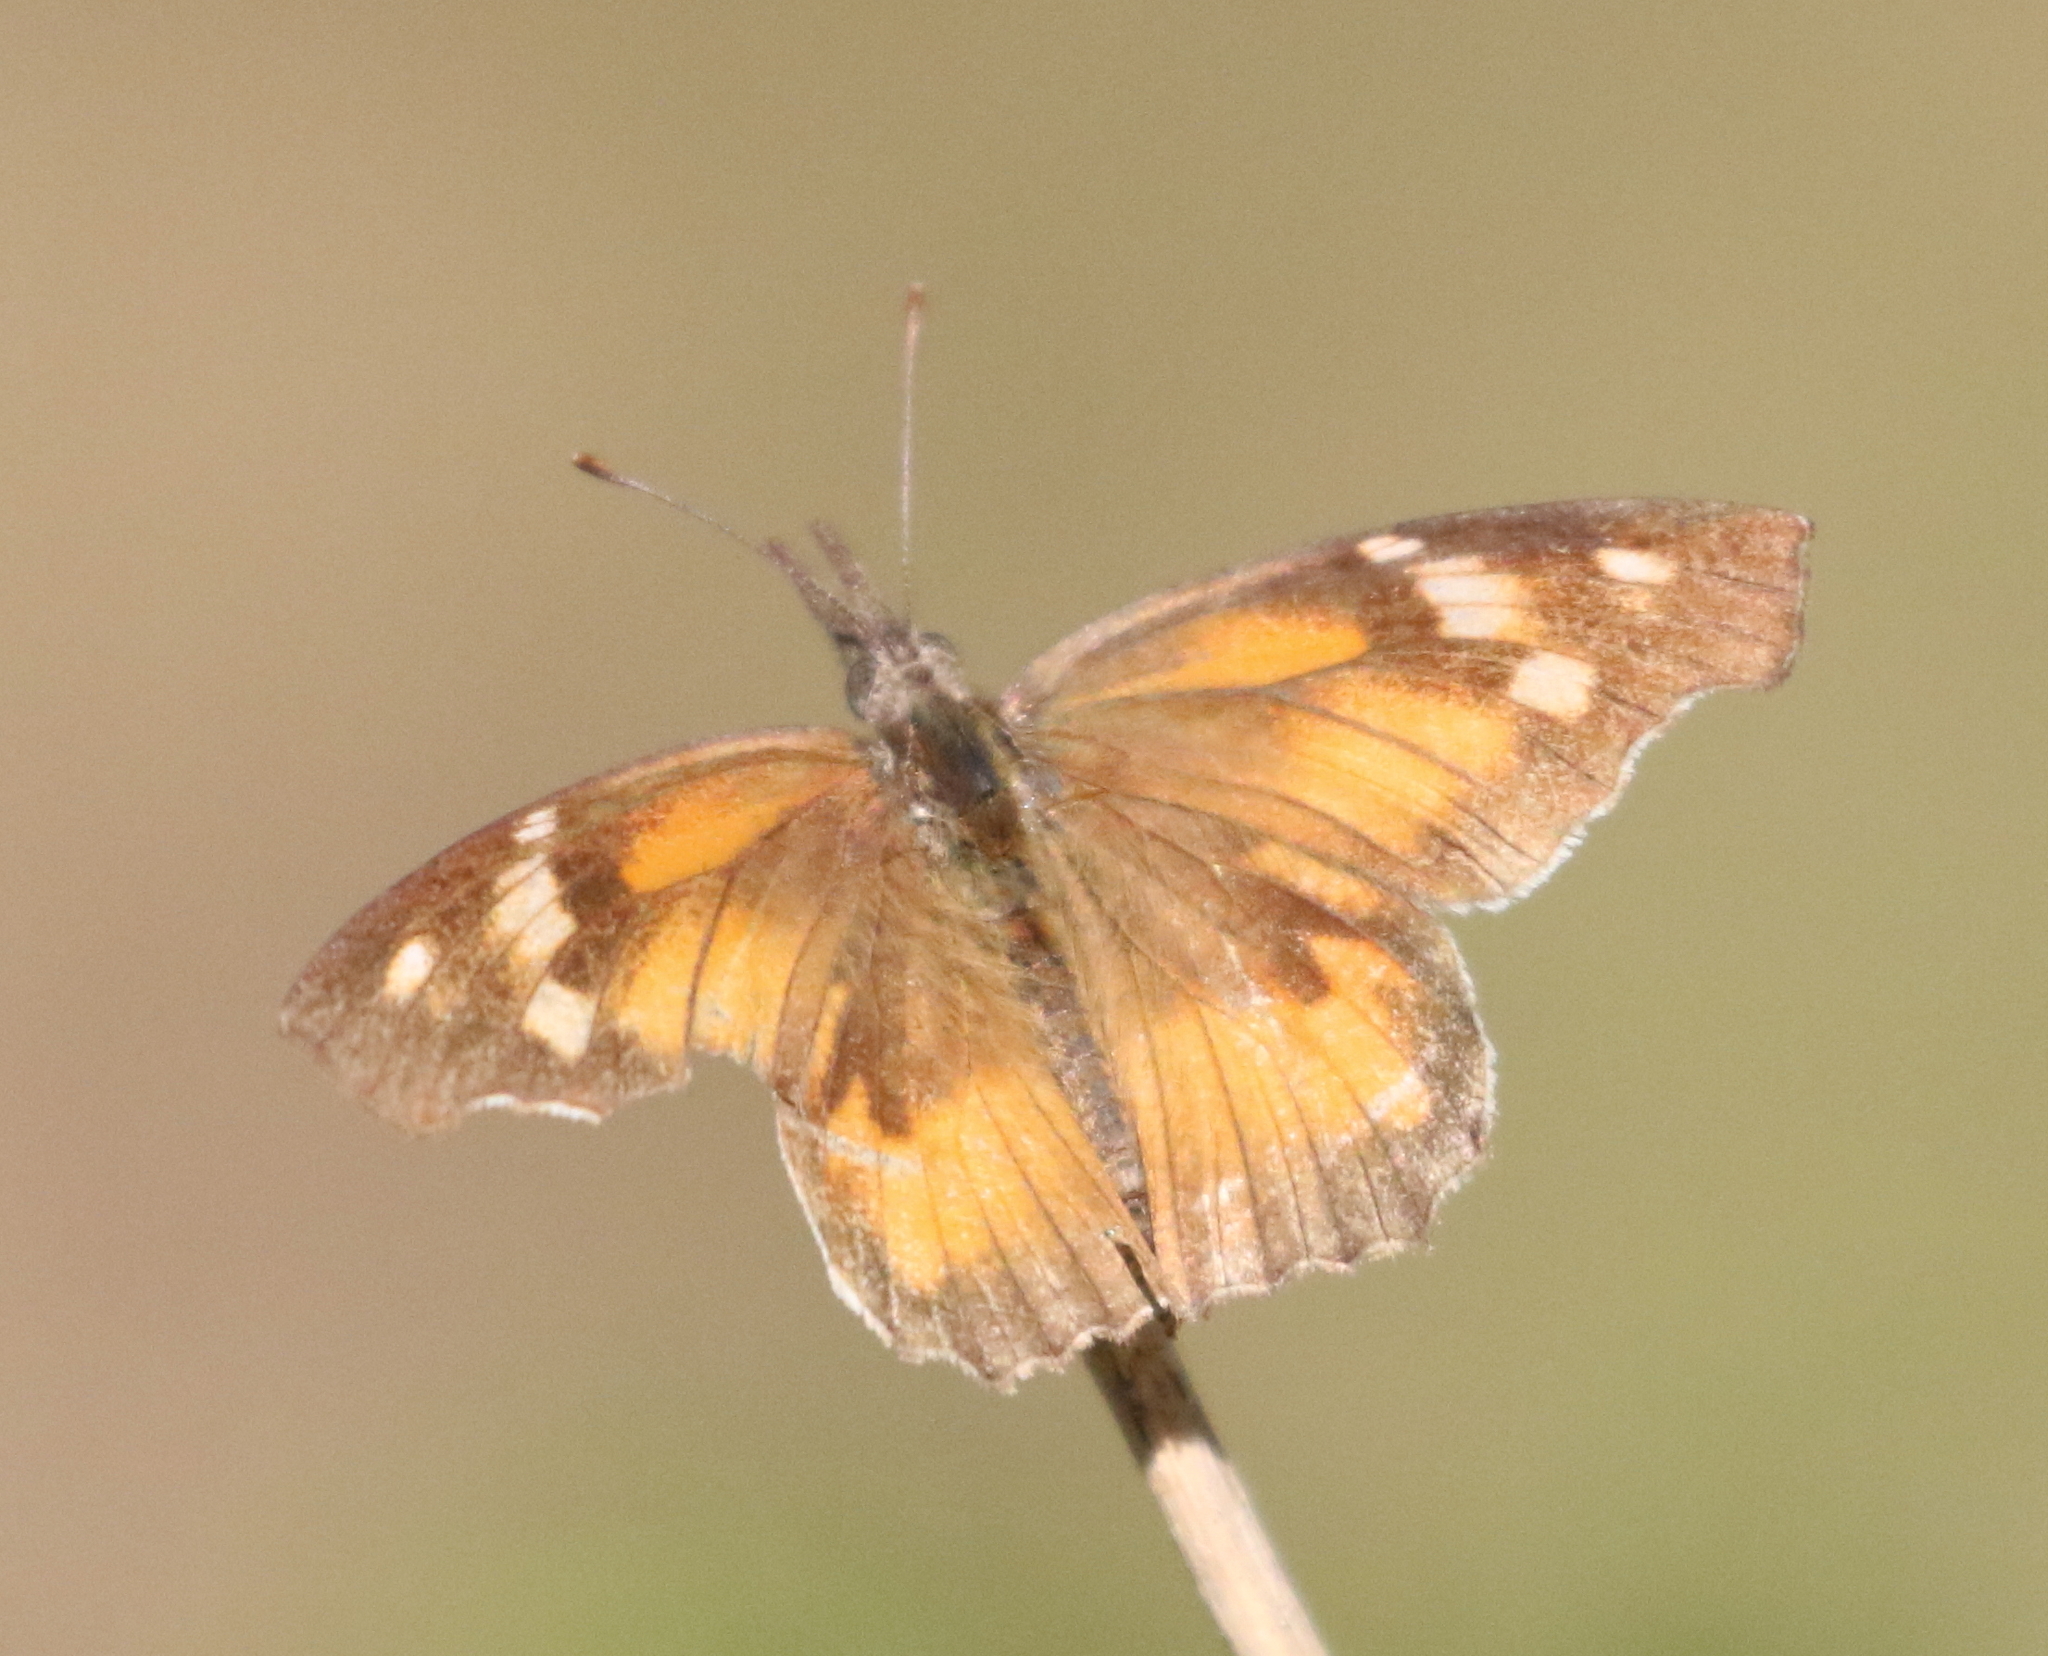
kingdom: Animalia
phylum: Arthropoda
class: Insecta
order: Lepidoptera
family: Nymphalidae
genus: Libytheana
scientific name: Libytheana carinenta
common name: American snout
